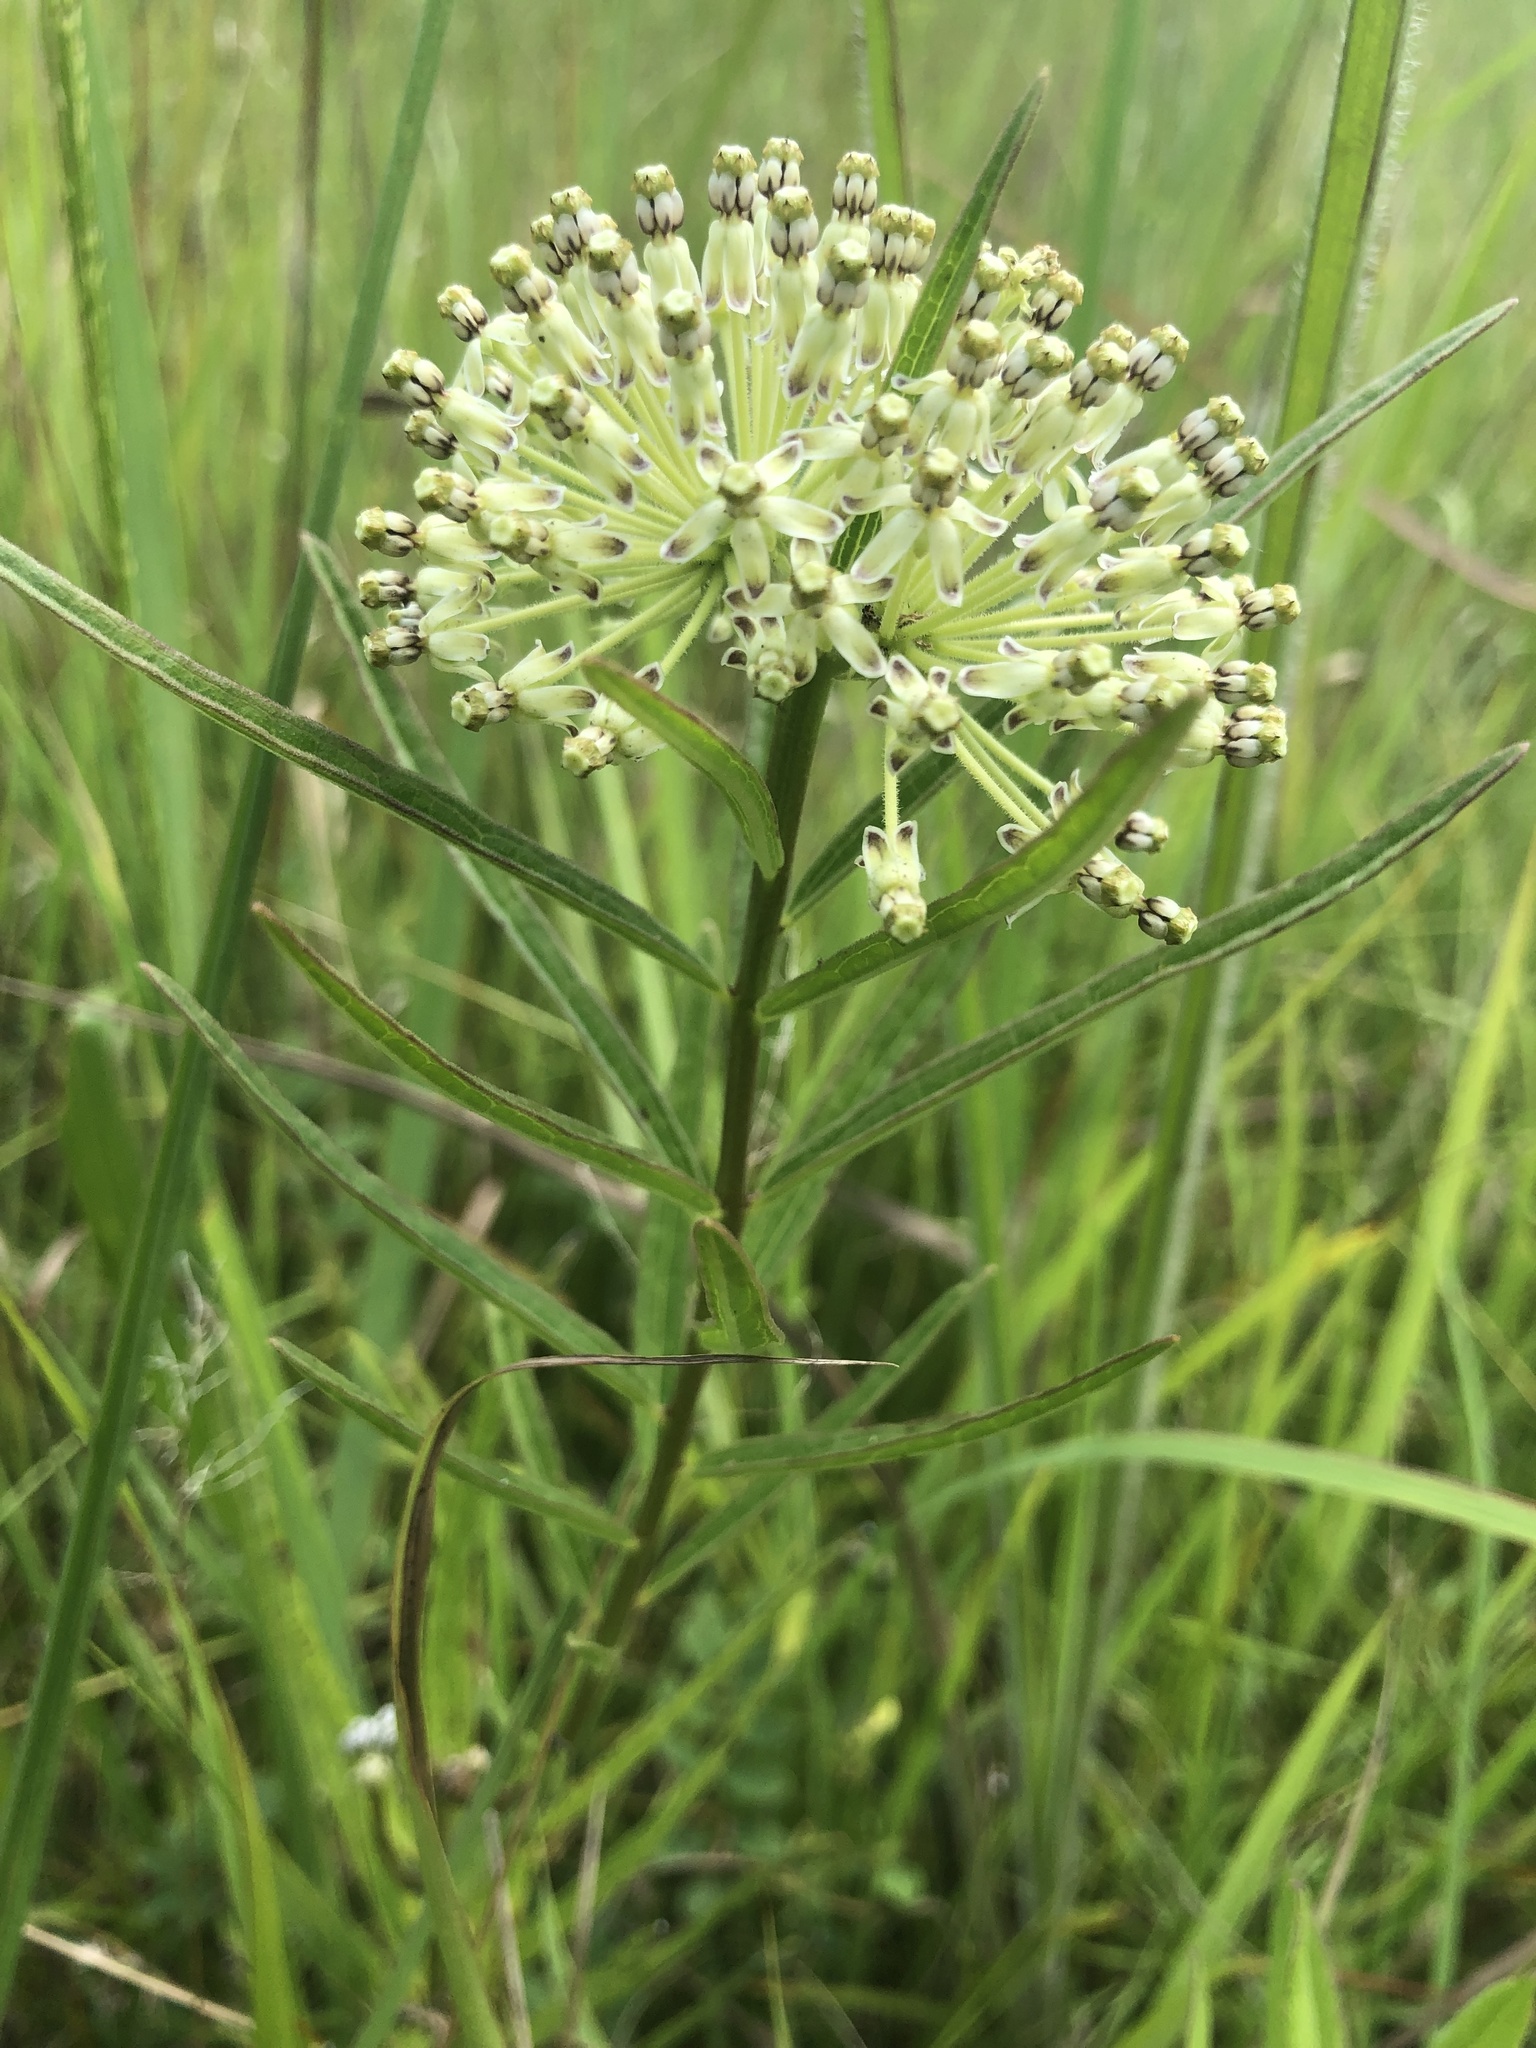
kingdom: Plantae
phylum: Tracheophyta
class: Magnoliopsida
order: Gentianales
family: Apocynaceae
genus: Asclepias
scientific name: Asclepias hirtella
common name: Prairie milkweed
